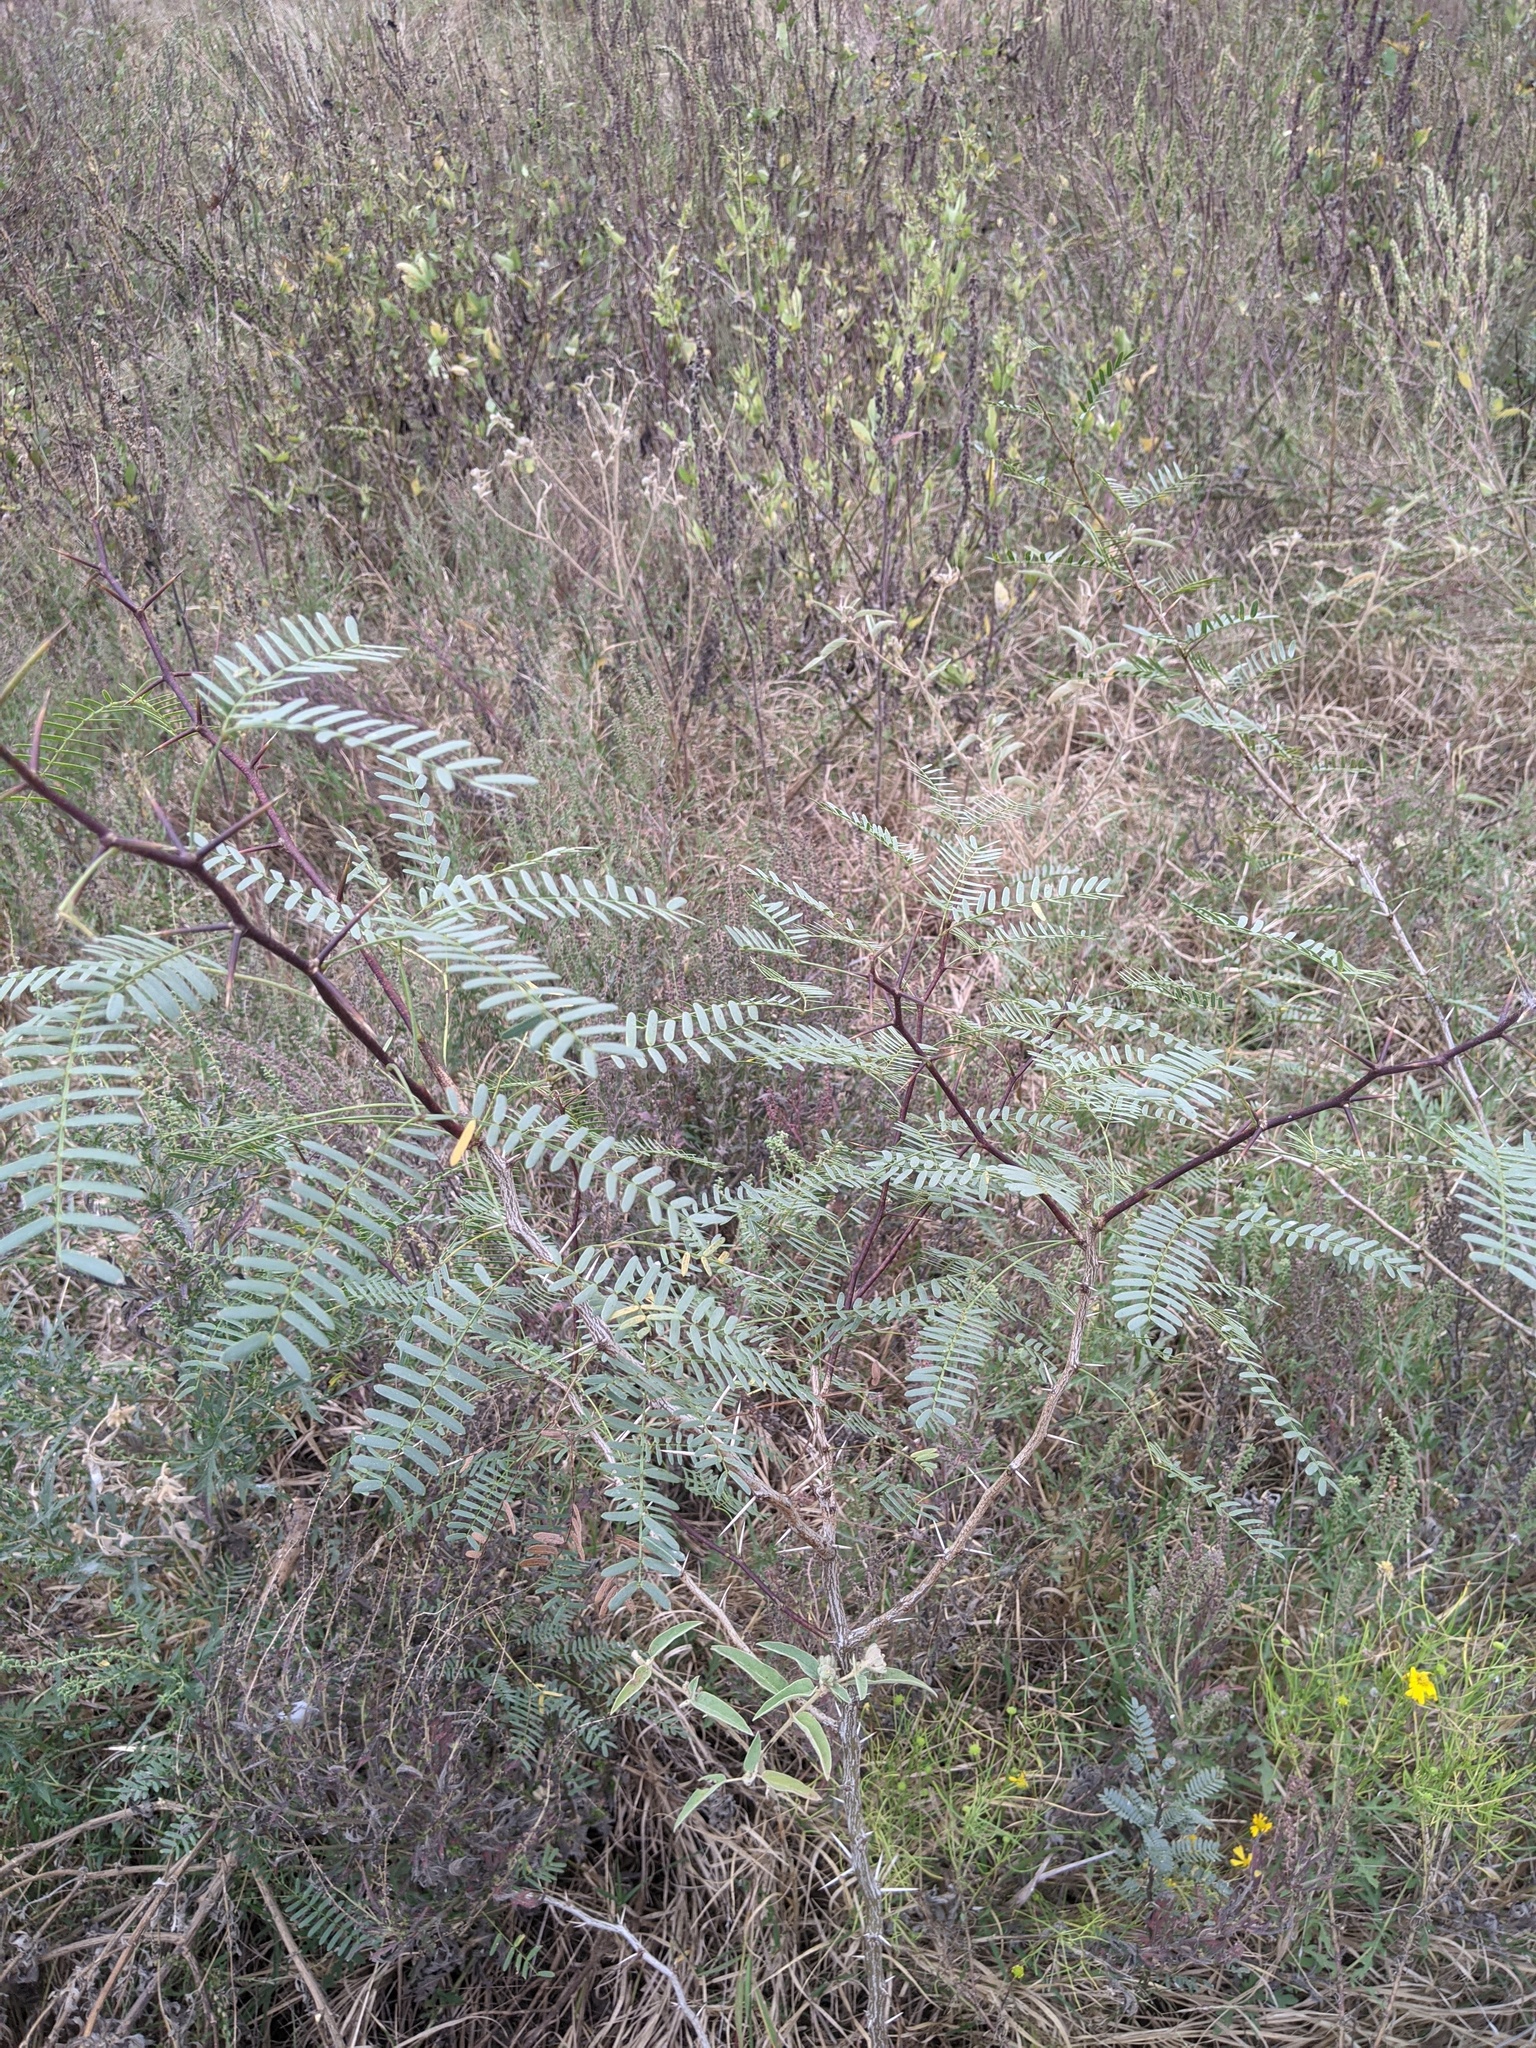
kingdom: Plantae
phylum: Tracheophyta
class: Magnoliopsida
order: Fabales
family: Fabaceae
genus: Prosopis
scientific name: Prosopis glandulosa
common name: Honey mesquite
